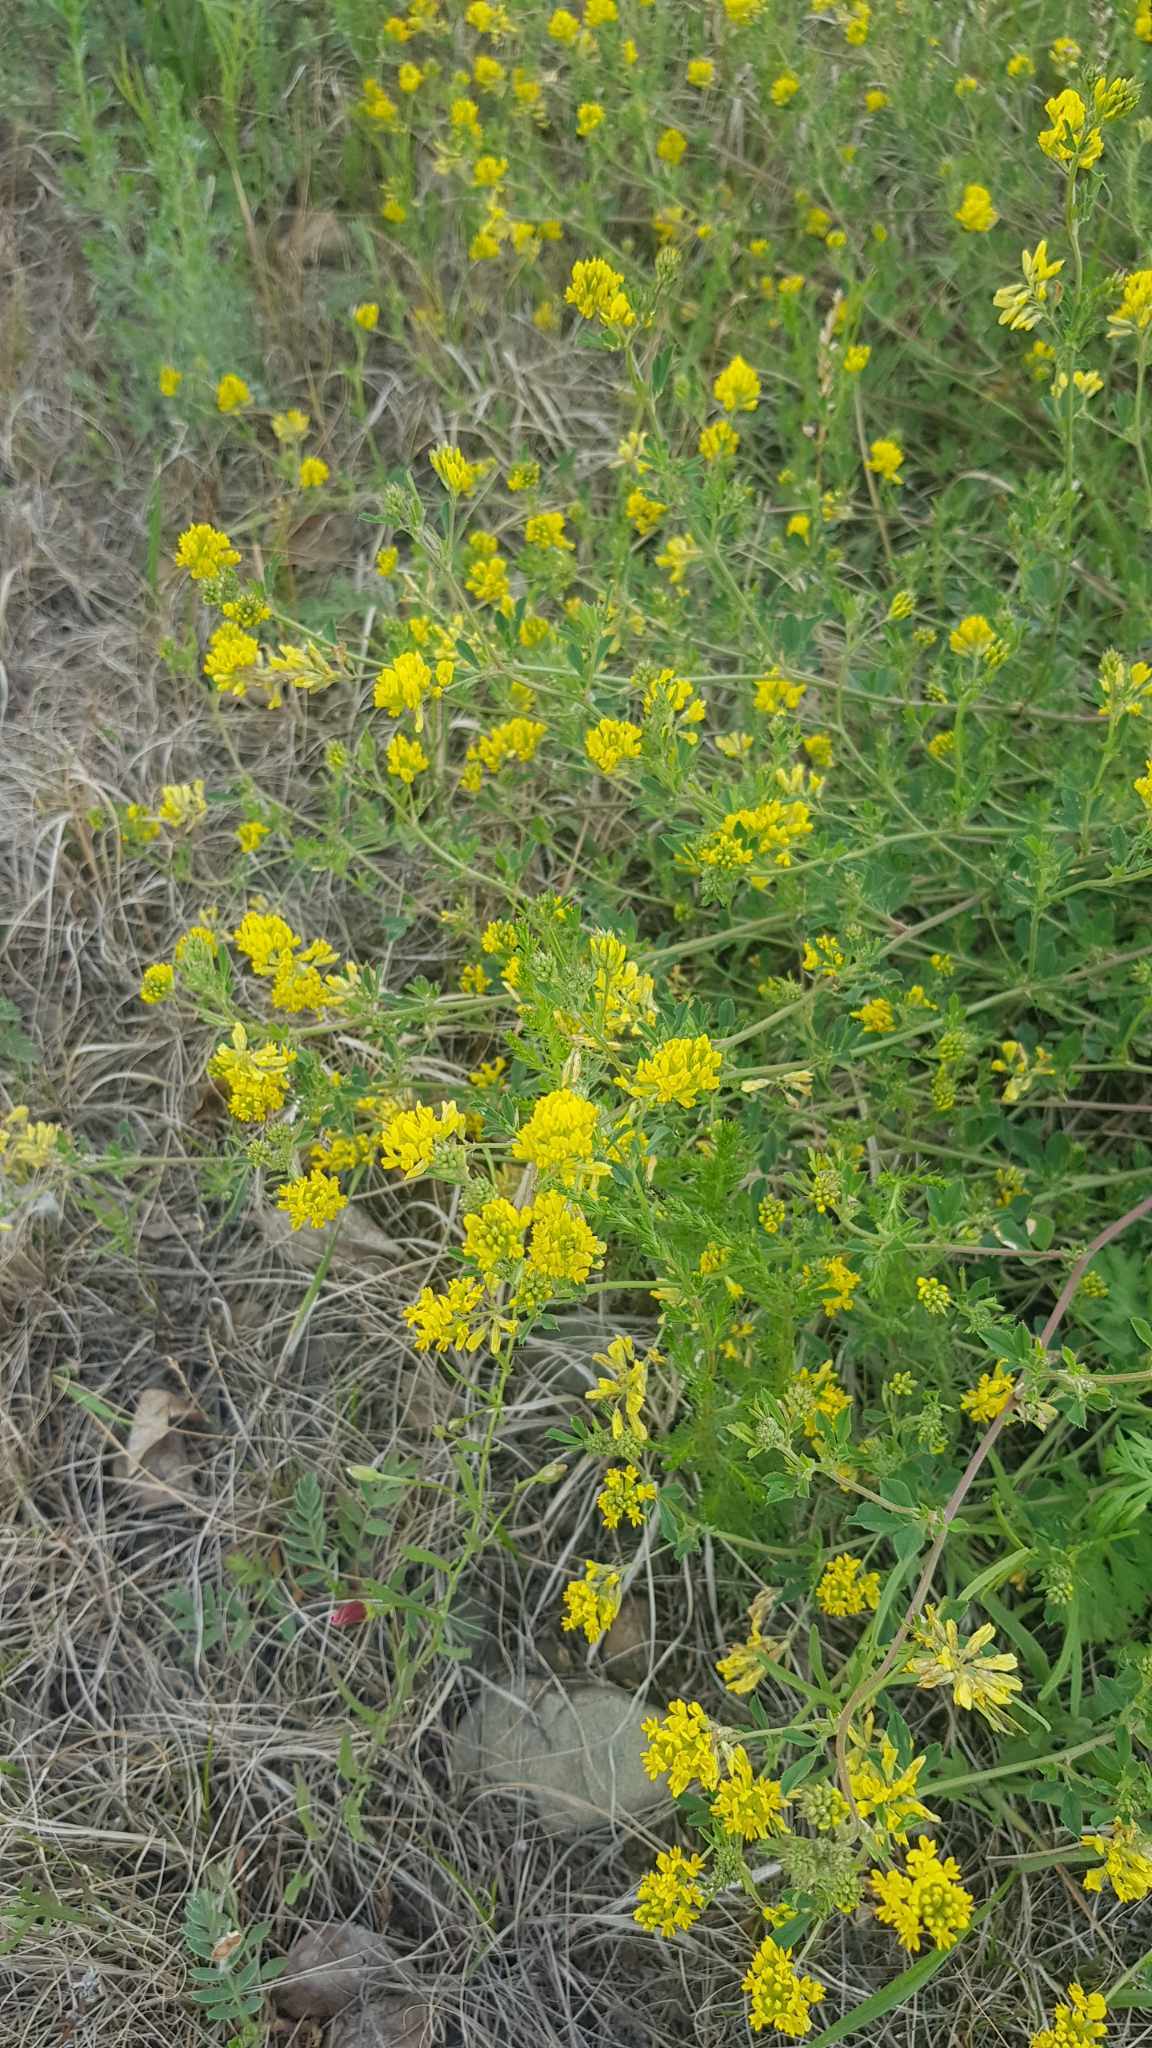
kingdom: Plantae
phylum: Tracheophyta
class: Magnoliopsida
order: Fabales
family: Fabaceae
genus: Medicago
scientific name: Medicago falcata
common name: Sickle medick
